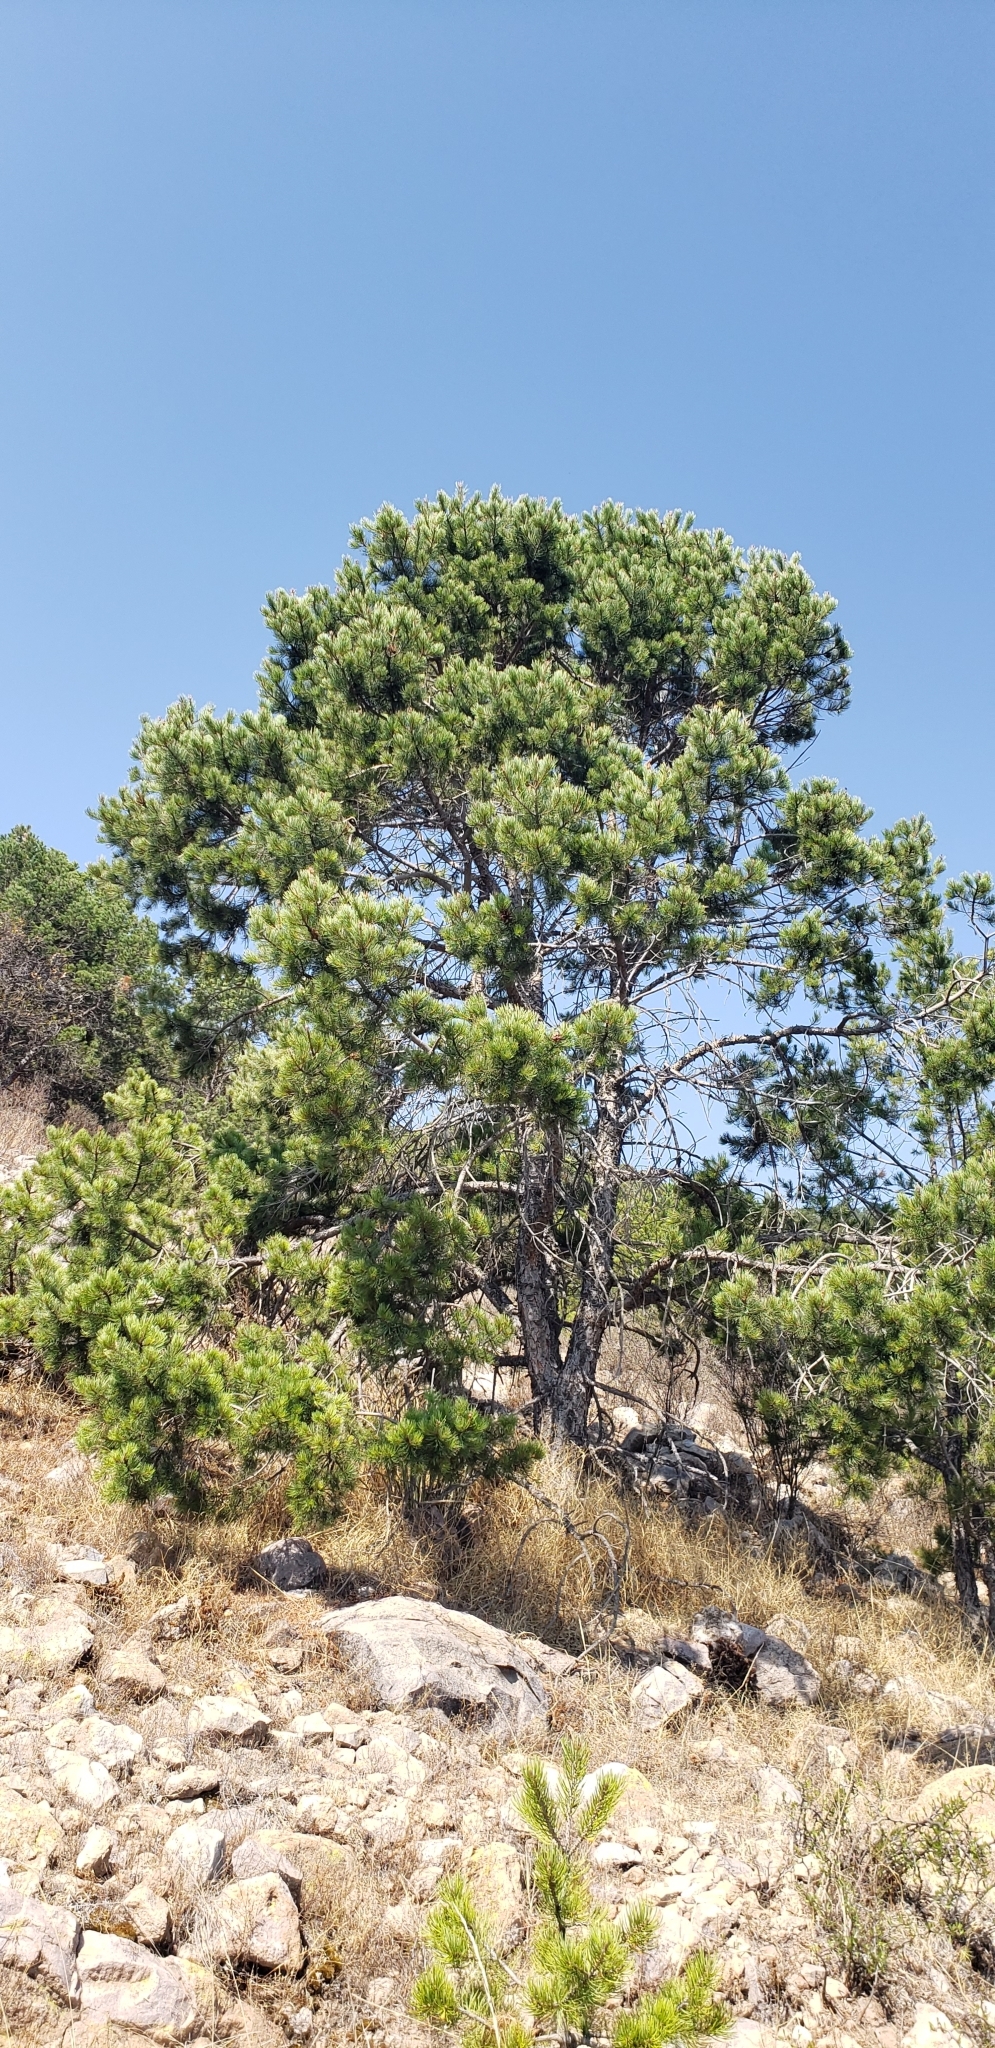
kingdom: Plantae
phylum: Tracheophyta
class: Pinopsida
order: Pinales
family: Pinaceae
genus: Pinus
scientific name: Pinus cembroides
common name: Mexican nut pine
